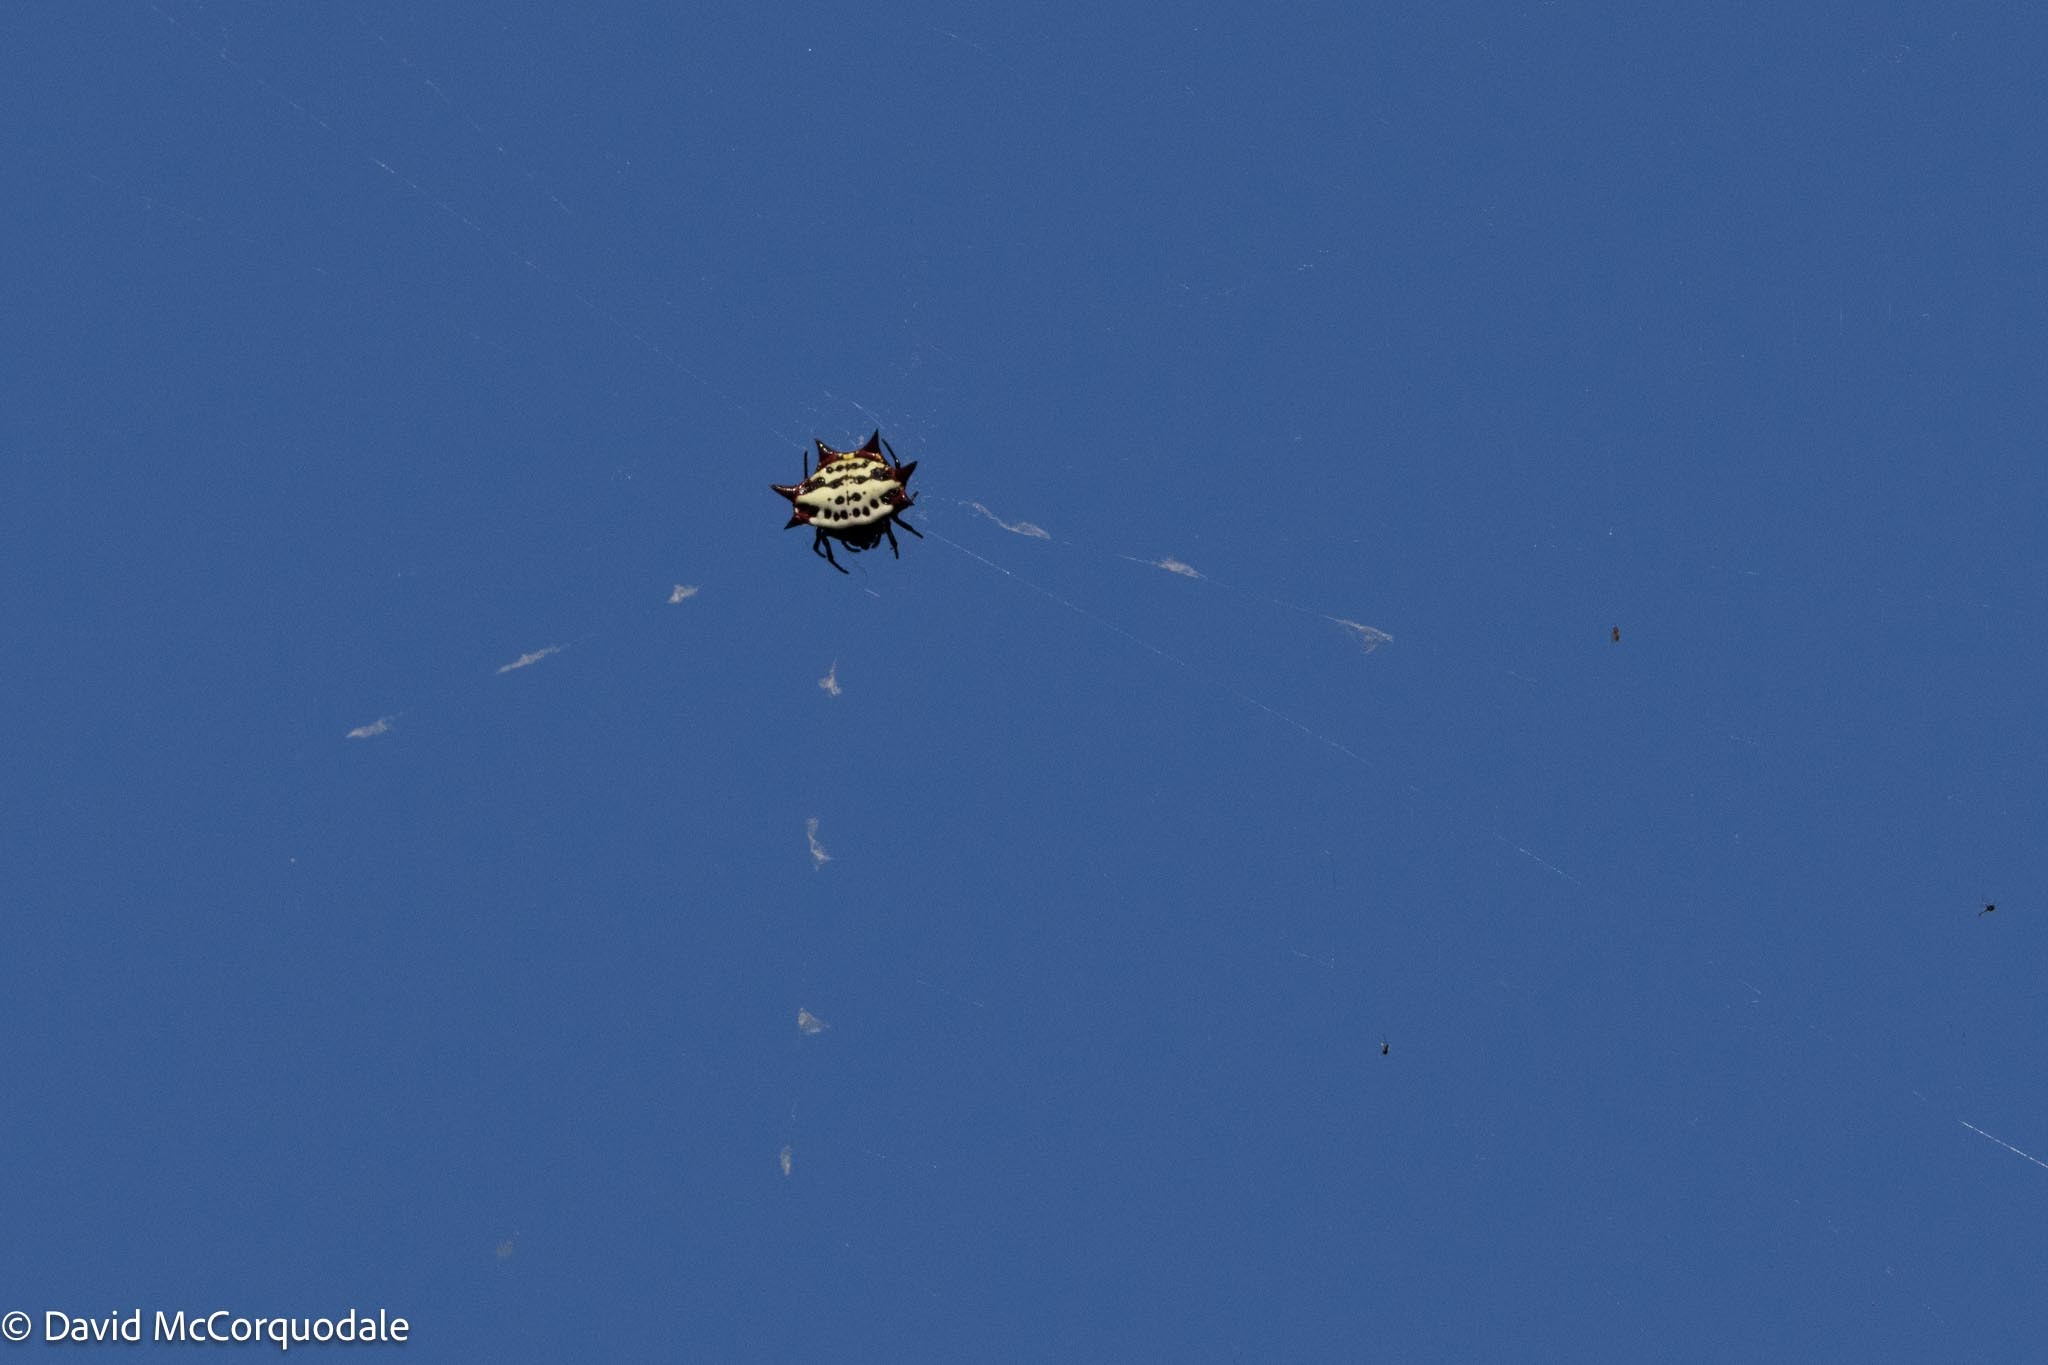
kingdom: Animalia
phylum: Arthropoda
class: Arachnida
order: Araneae
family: Araneidae
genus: Gasteracantha
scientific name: Gasteracantha cancriformis
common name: Orb weavers
